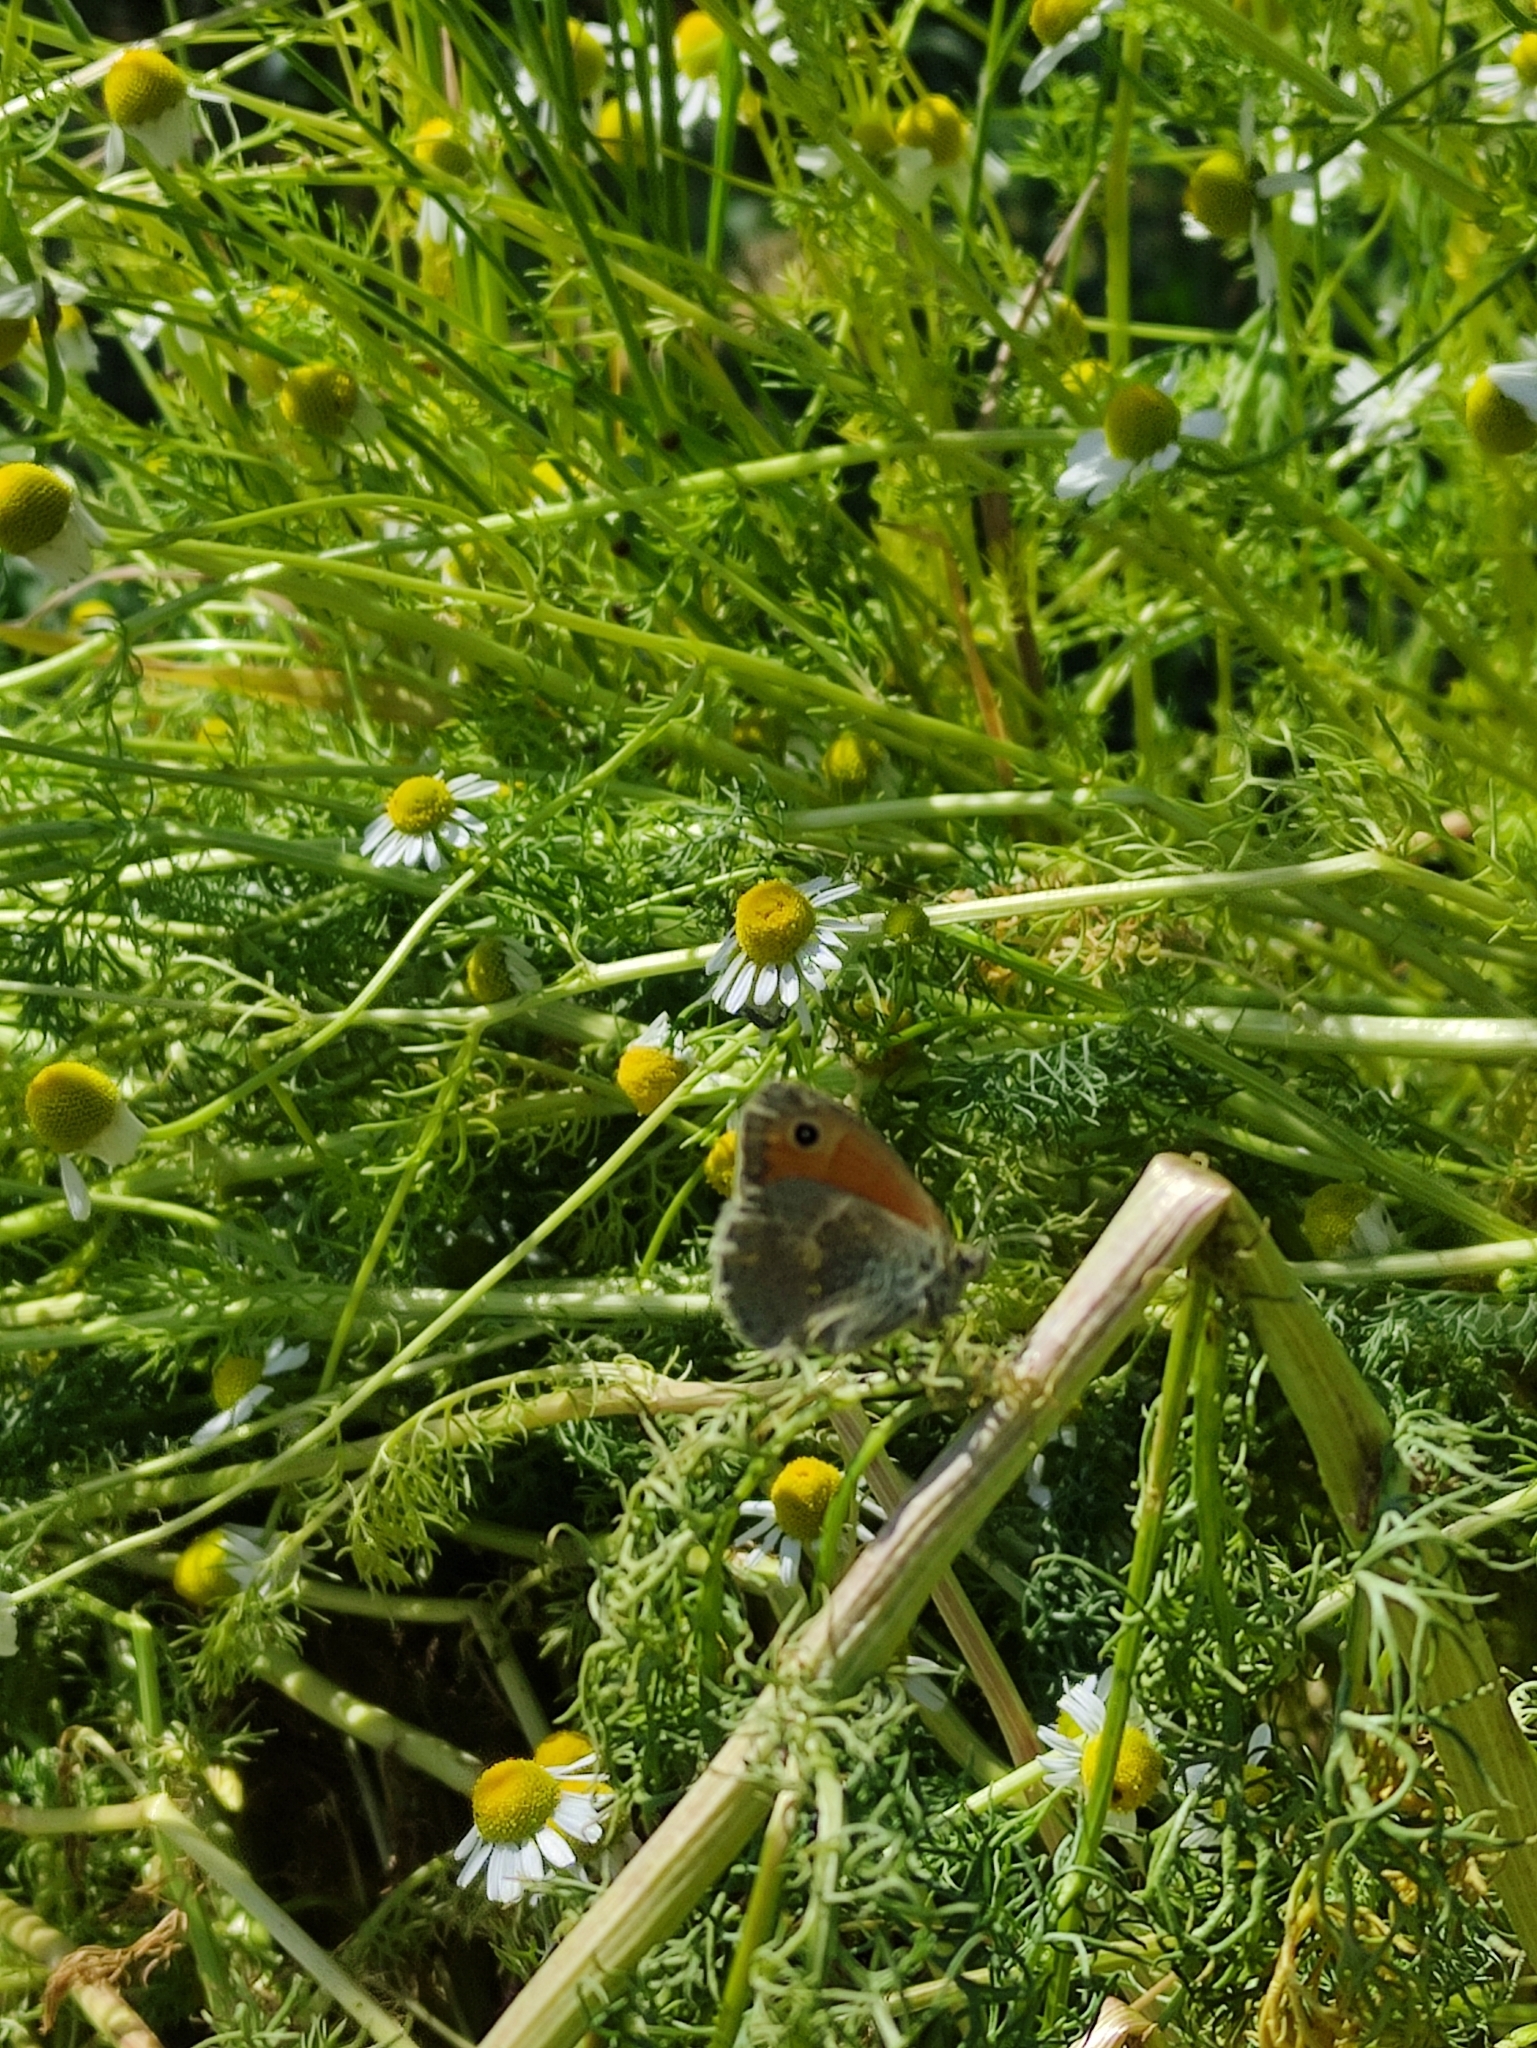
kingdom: Animalia
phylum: Arthropoda
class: Insecta
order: Lepidoptera
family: Nymphalidae
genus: Coenonympha
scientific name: Coenonympha pamphilus
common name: Small heath
